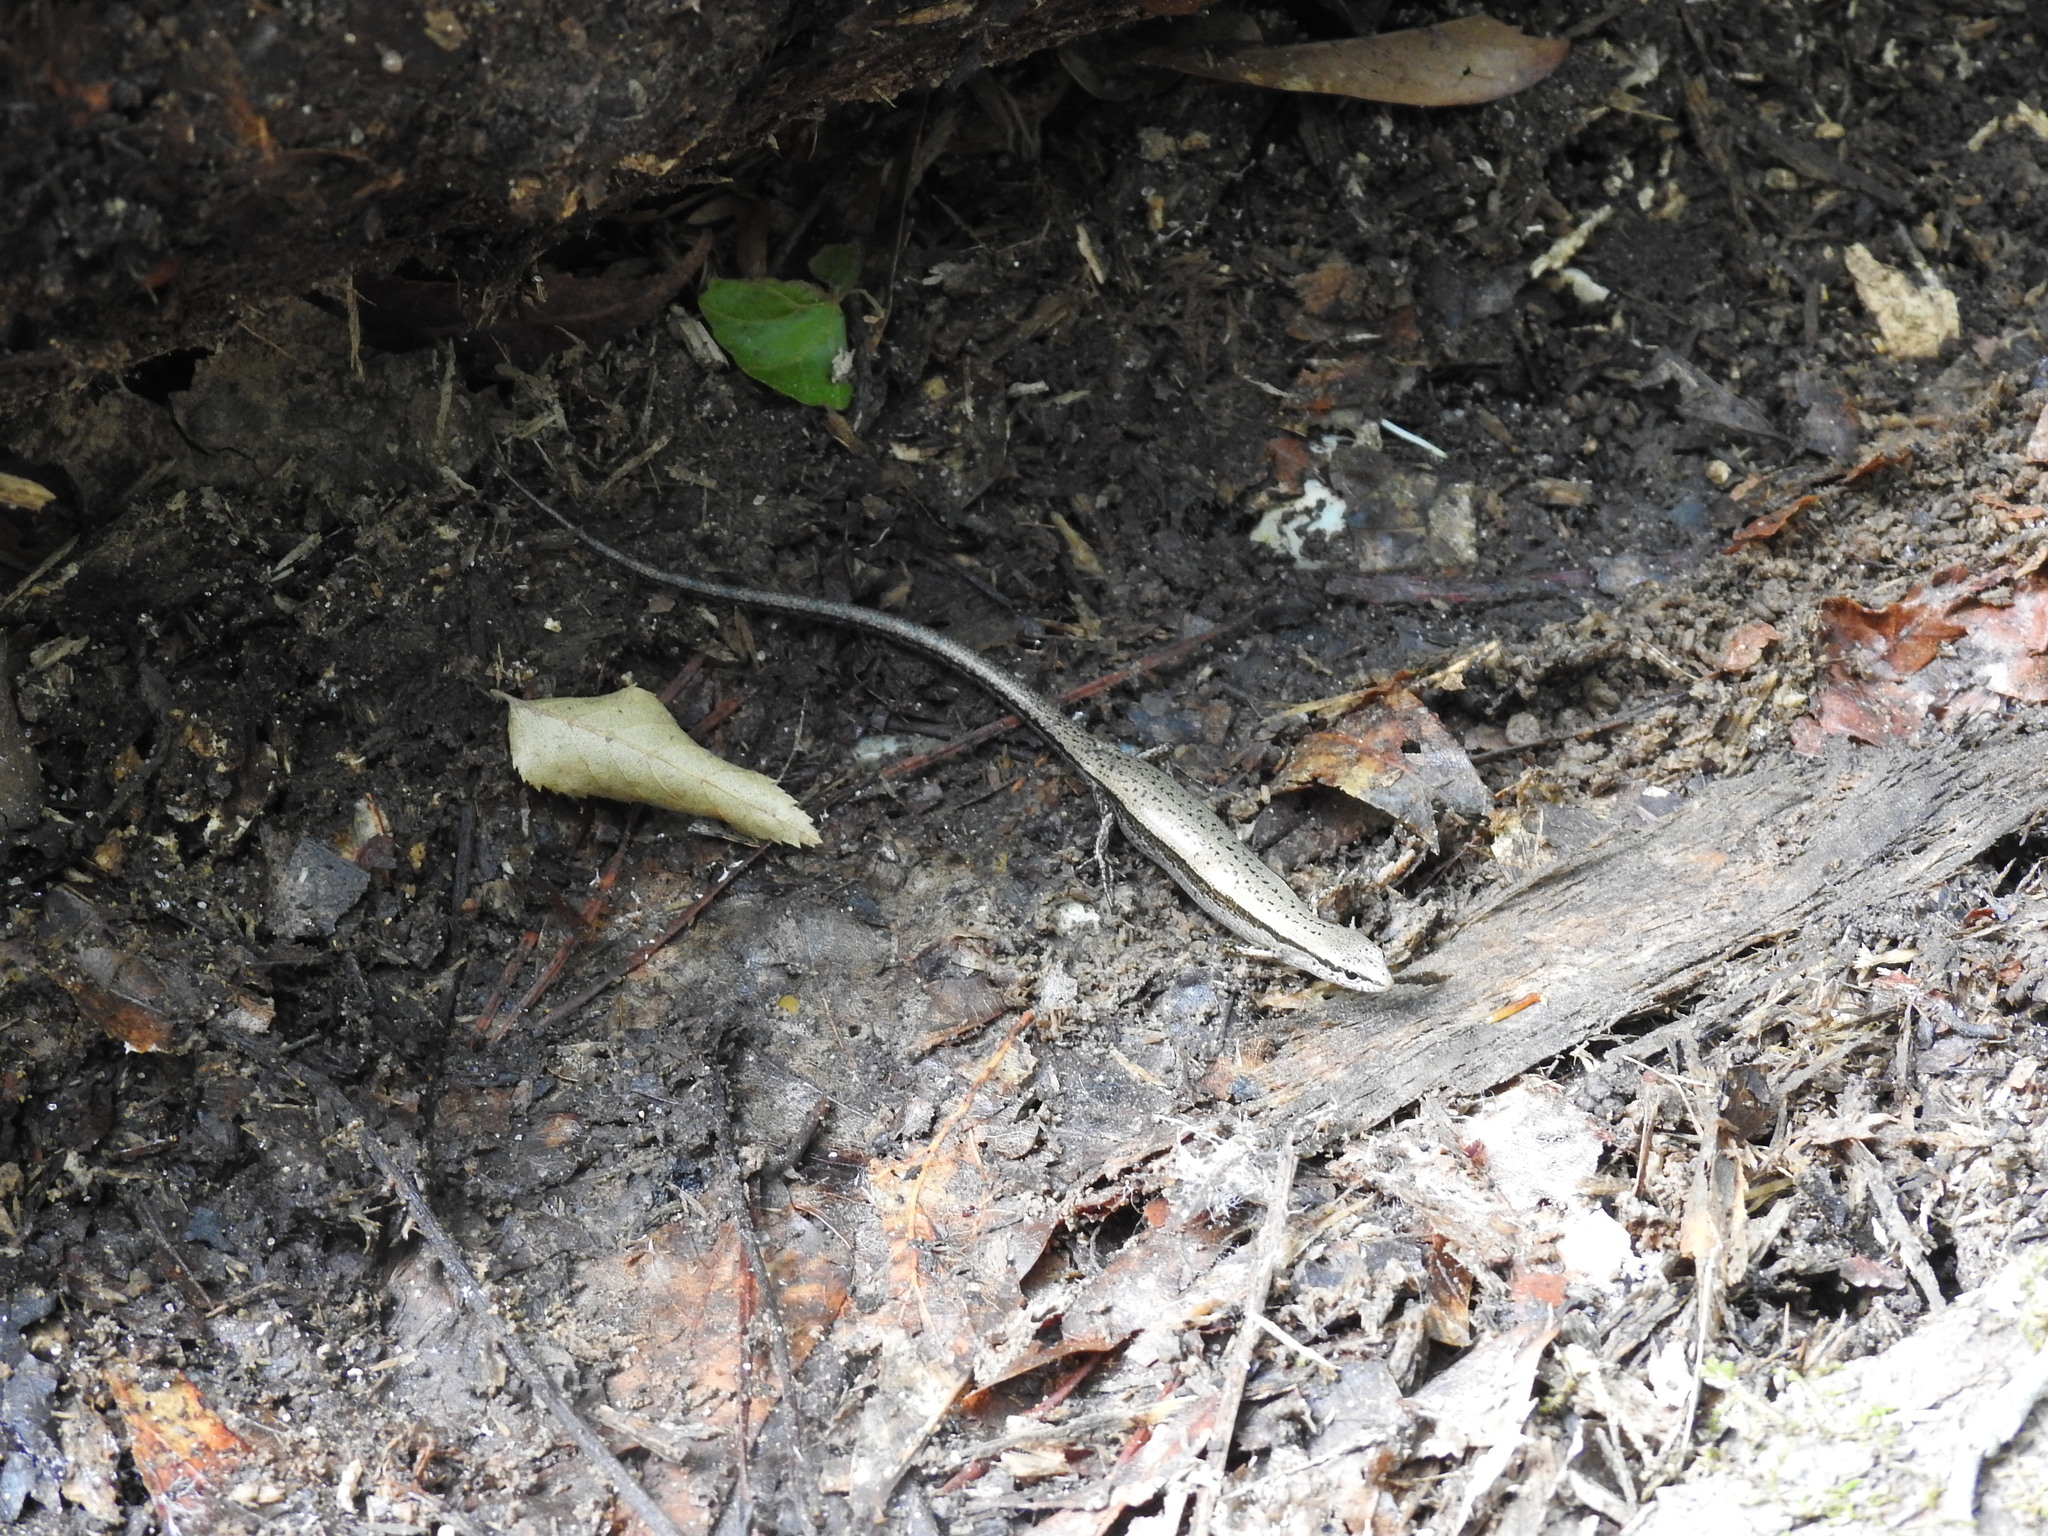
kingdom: Animalia
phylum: Chordata
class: Squamata
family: Scincidae
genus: Scincella
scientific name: Scincella lateralis
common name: Ground skink
